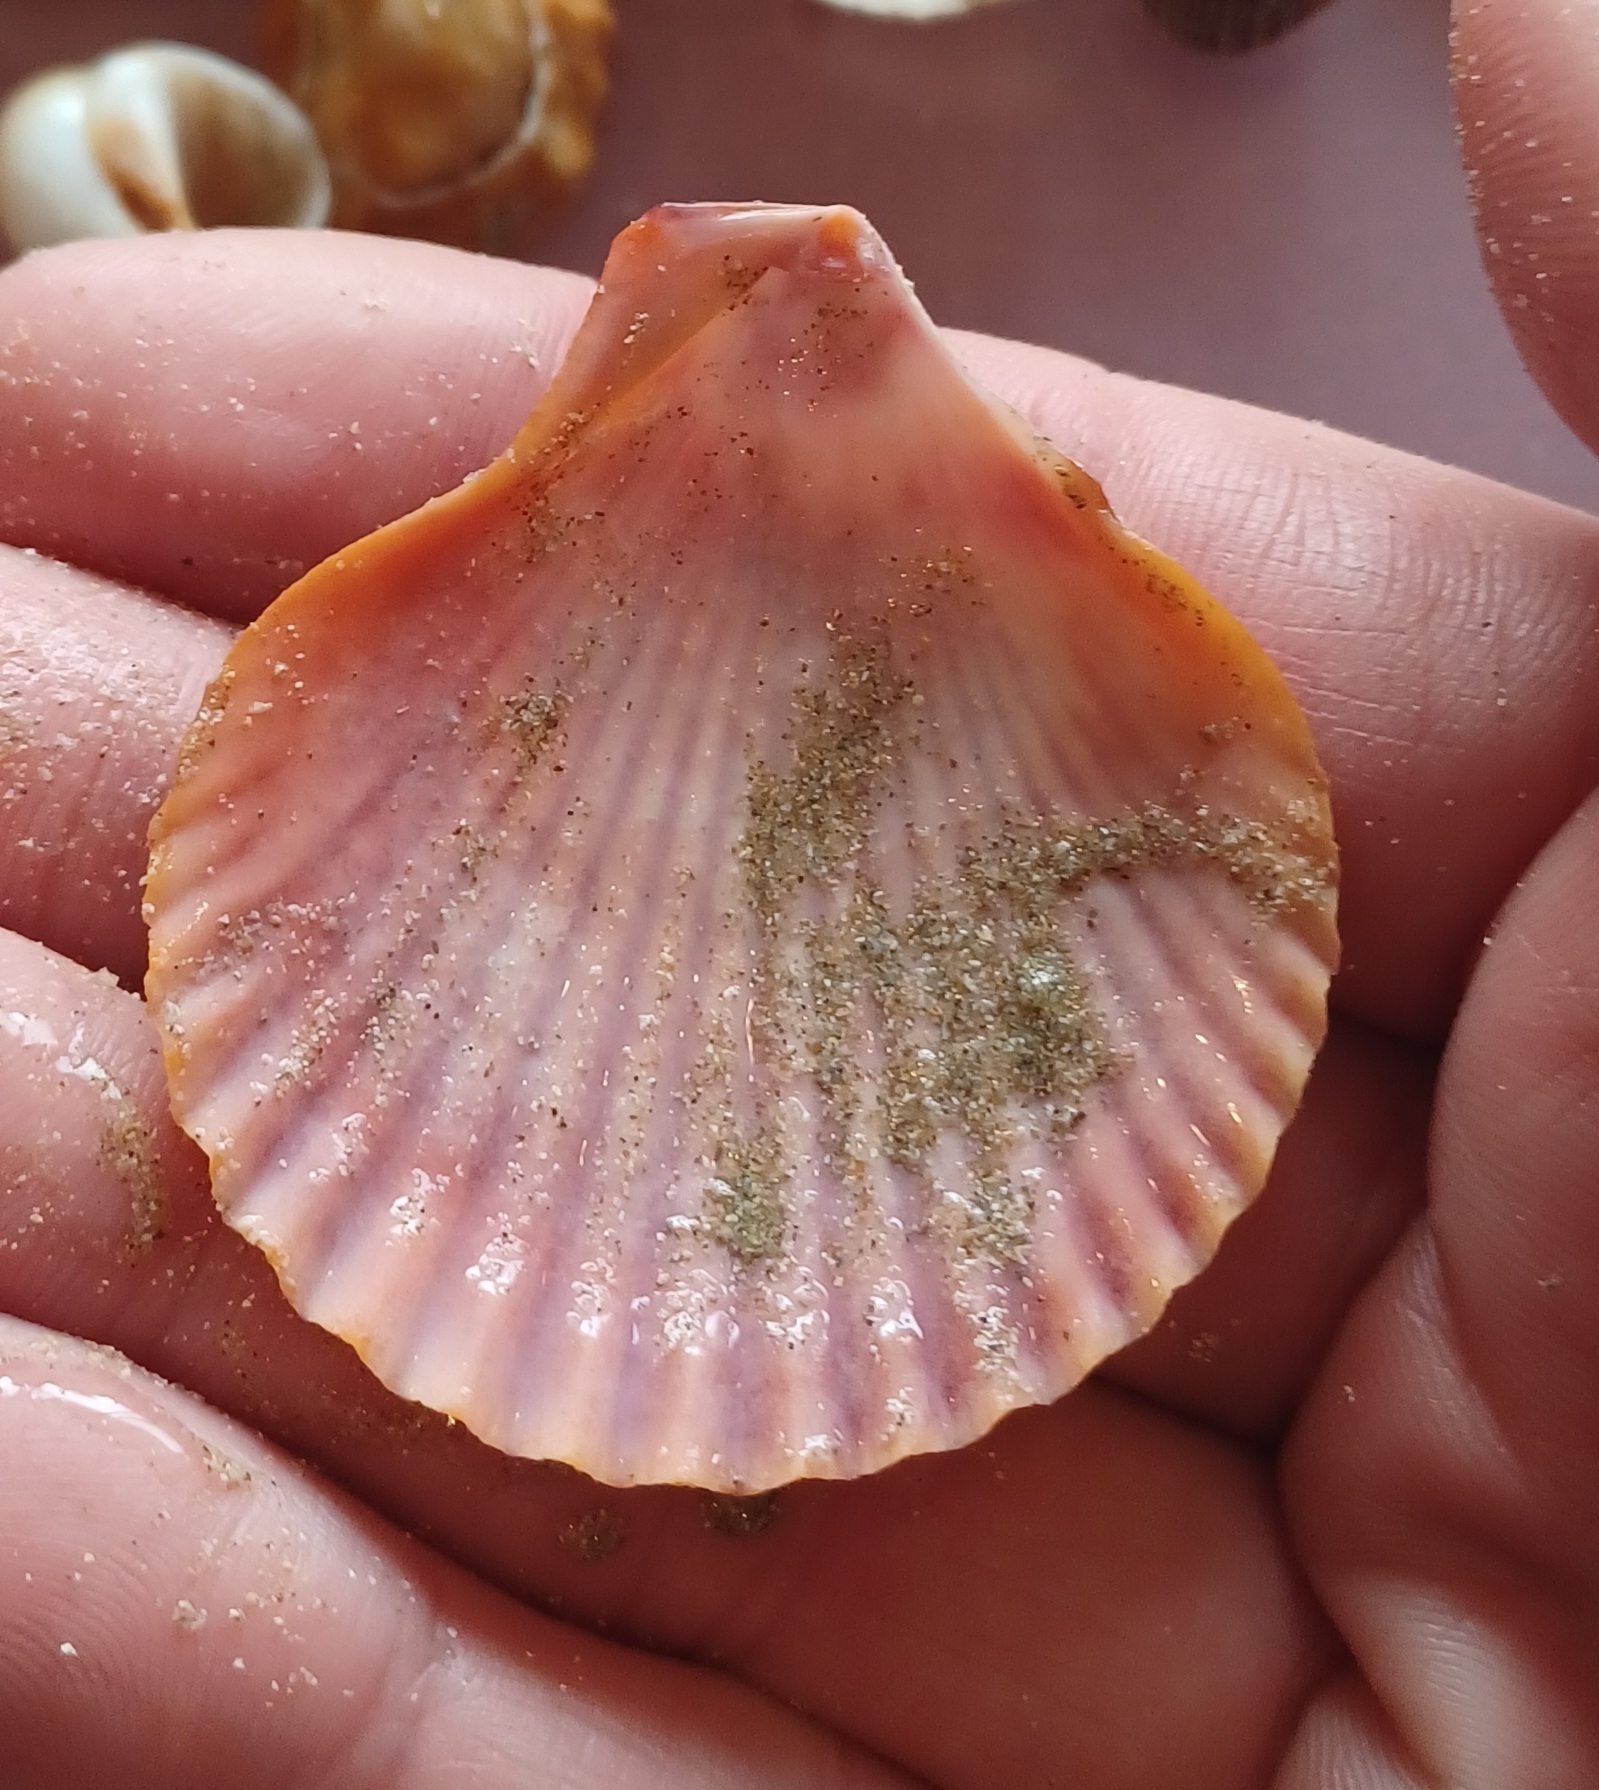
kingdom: Animalia
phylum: Mollusca
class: Bivalvia
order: Pectinida
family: Pectinidae
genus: Mimachlamys
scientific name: Mimachlamys asperrima
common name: Austral scallop
